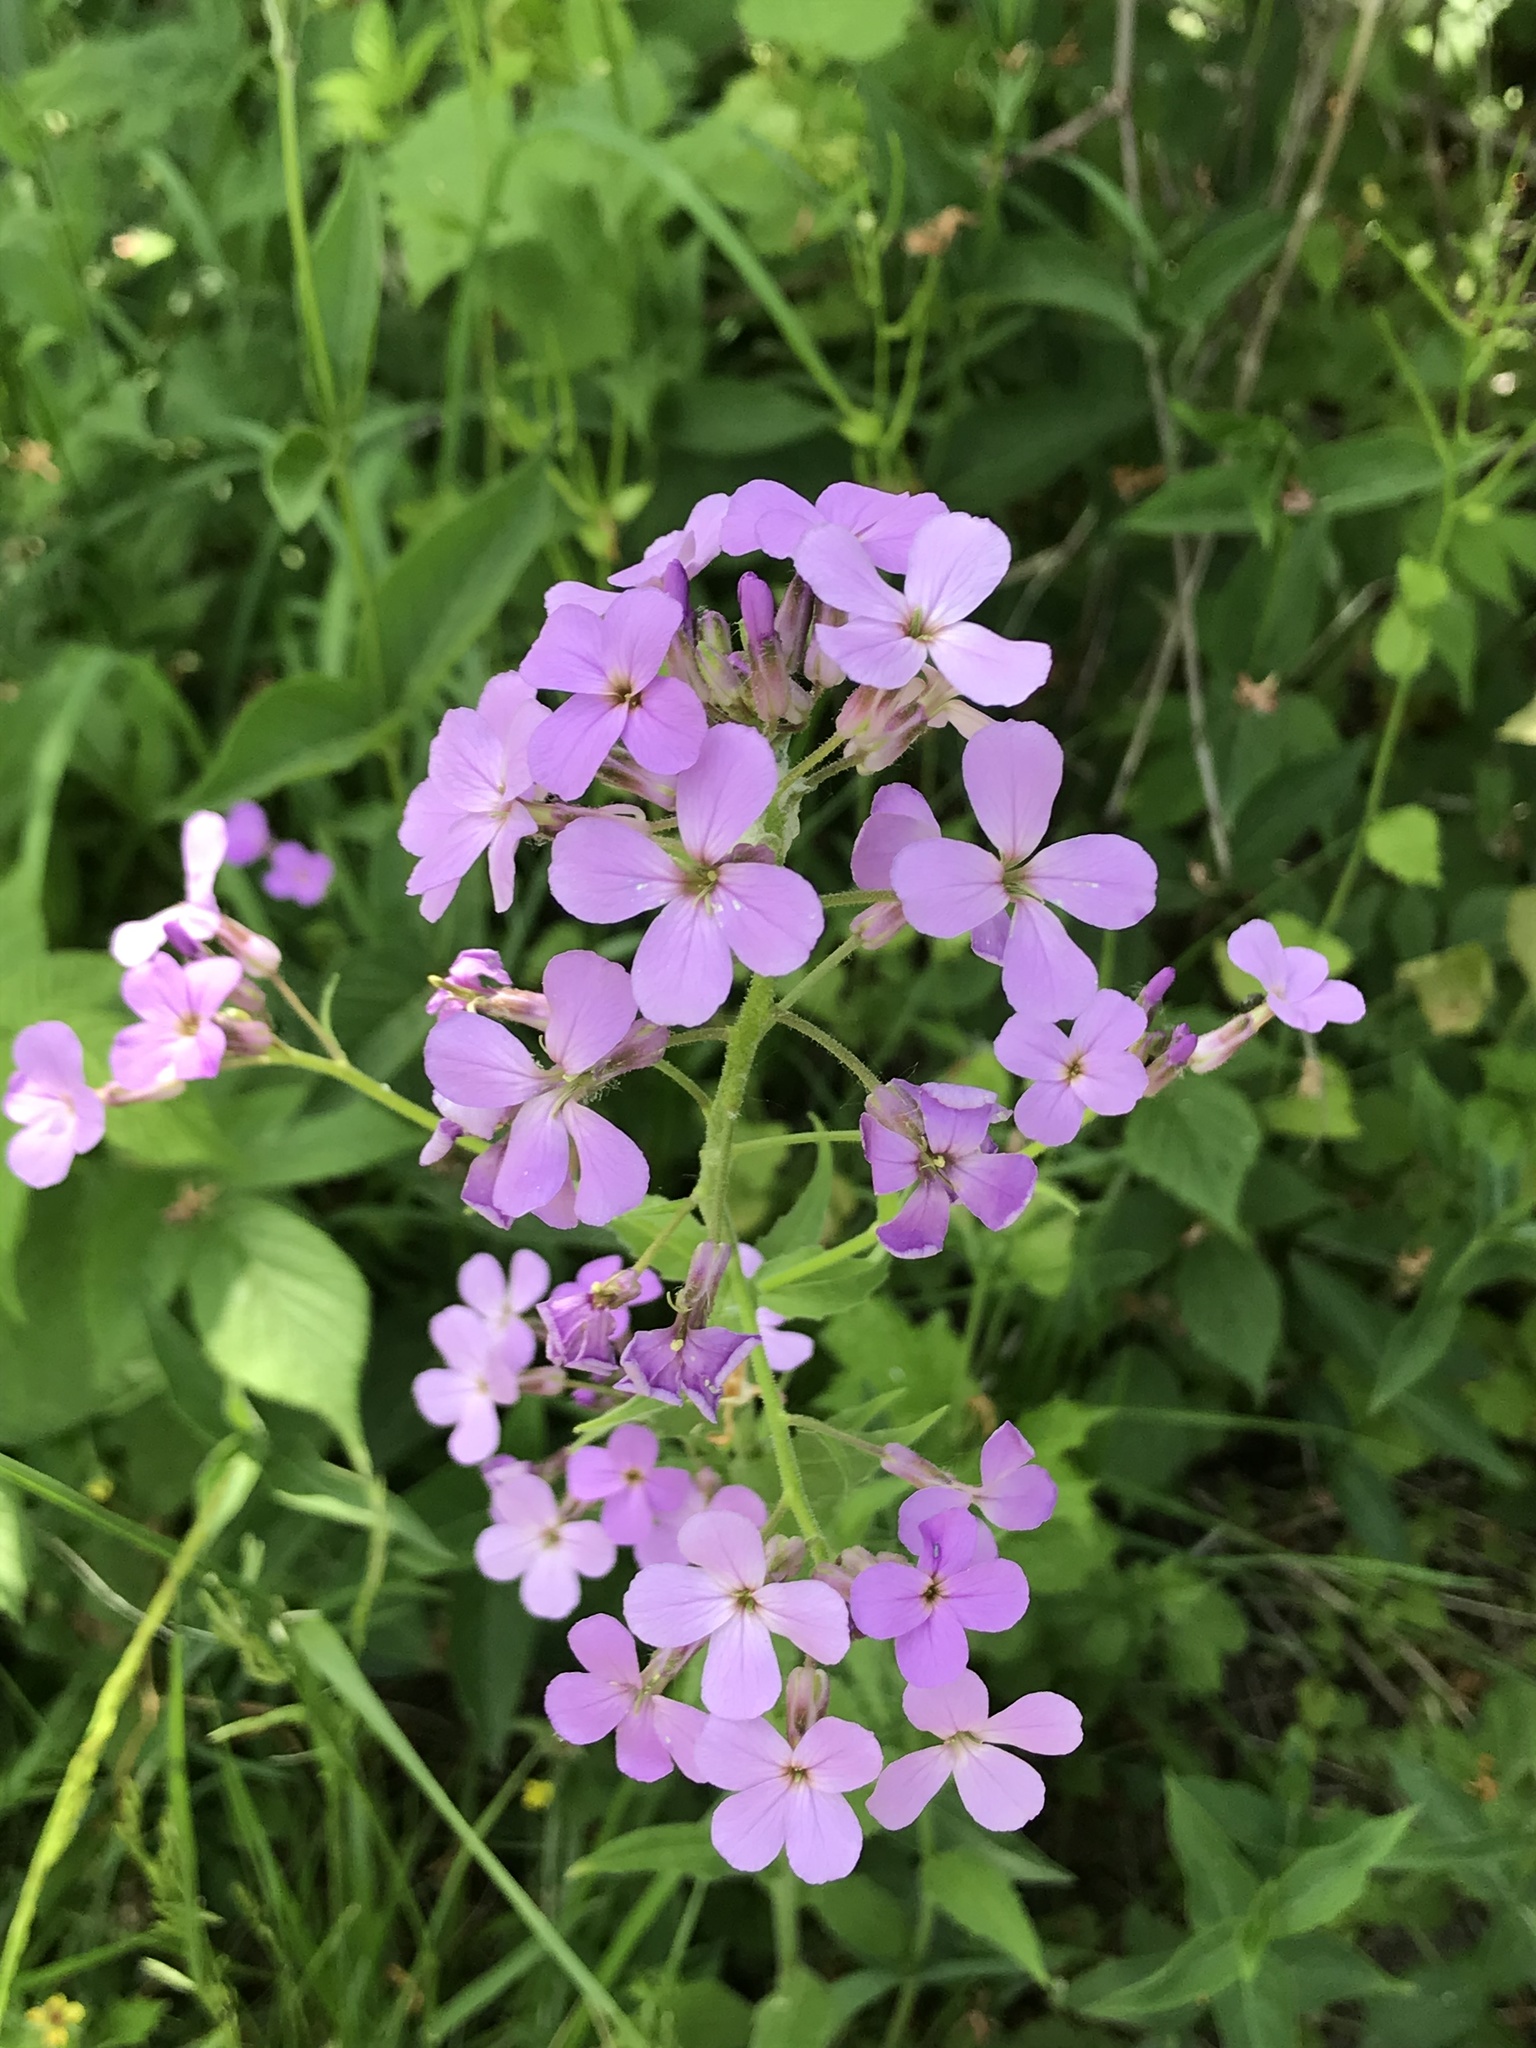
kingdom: Plantae
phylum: Tracheophyta
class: Magnoliopsida
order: Brassicales
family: Brassicaceae
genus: Hesperis
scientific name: Hesperis matronalis
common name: Dame's-violet
